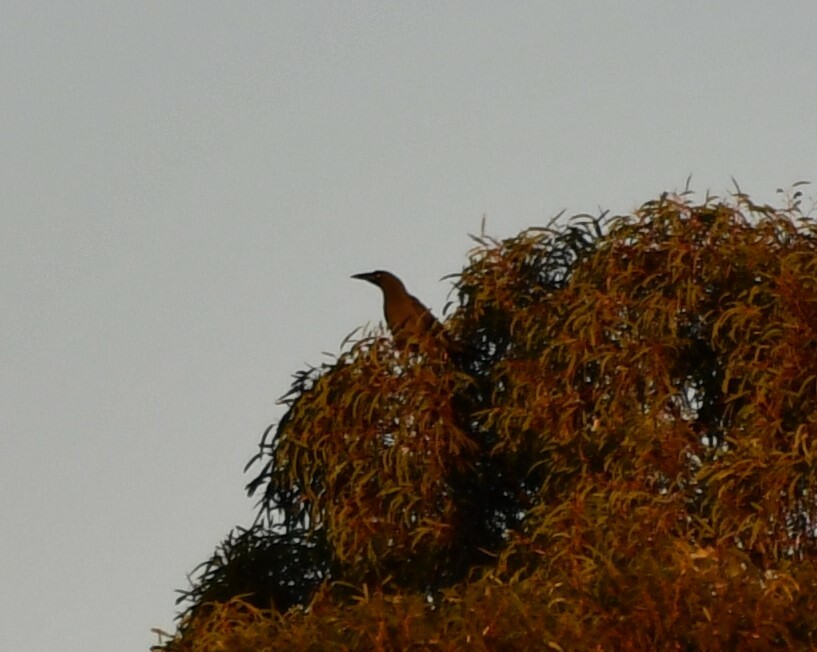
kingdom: Animalia
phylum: Chordata
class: Aves
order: Passeriformes
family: Cracticidae
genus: Strepera
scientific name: Strepera versicolor
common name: Grey currawong
